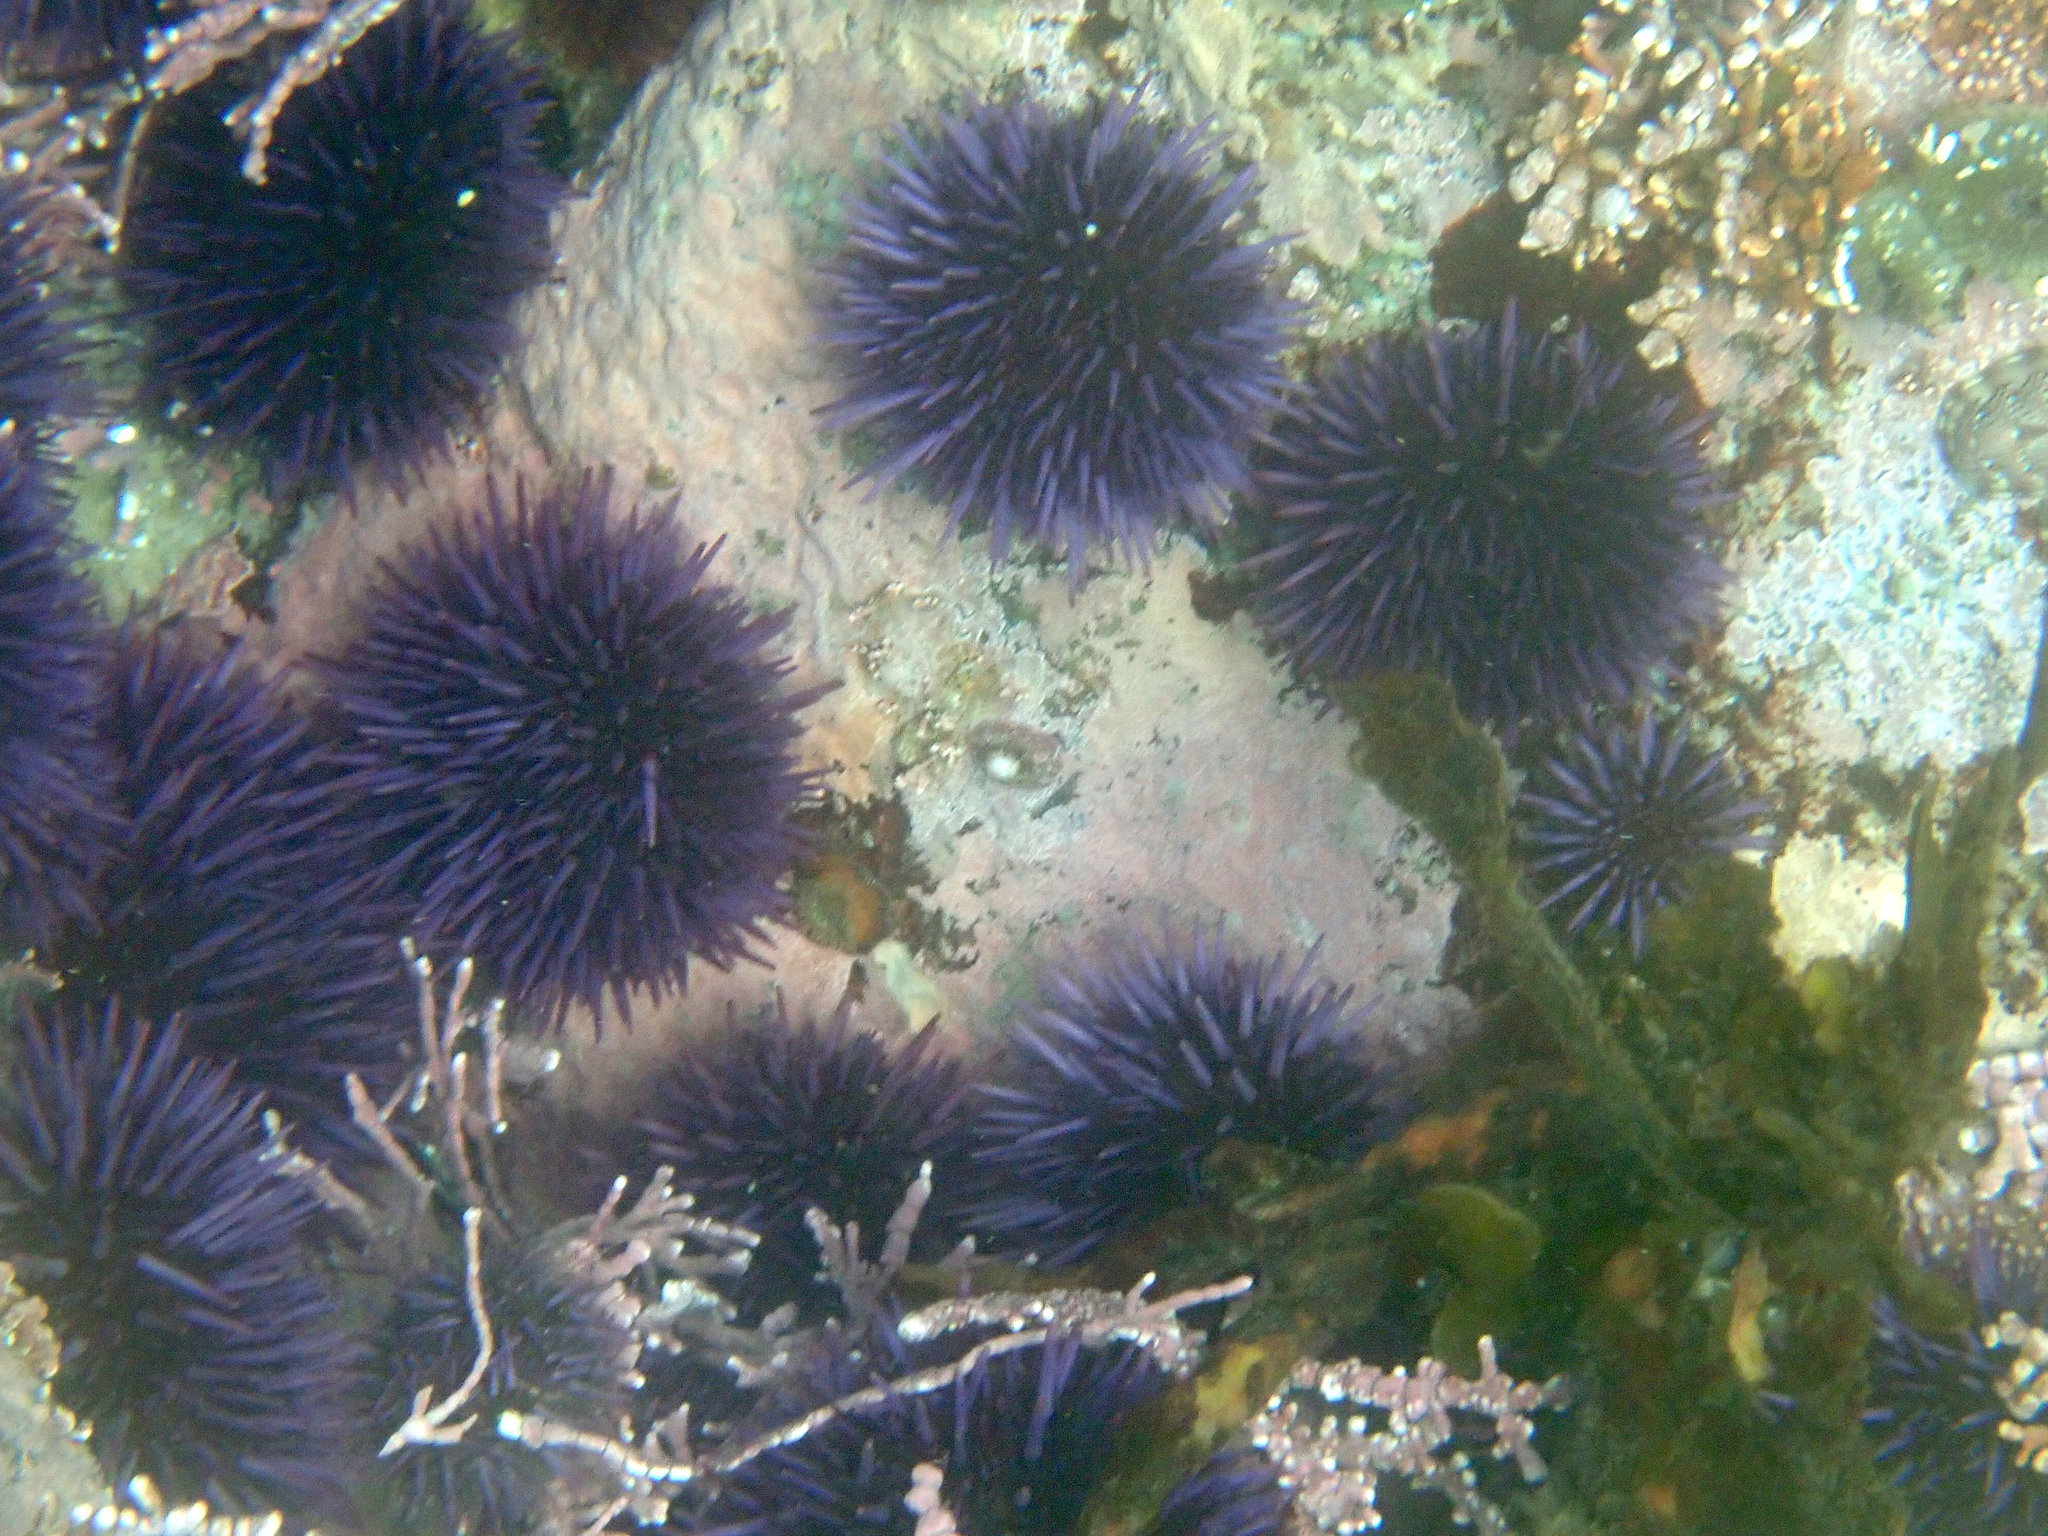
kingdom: Animalia
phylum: Echinodermata
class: Echinoidea
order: Camarodonta
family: Strongylocentrotidae
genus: Strongylocentrotus
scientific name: Strongylocentrotus purpuratus
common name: Purple sea urchin
